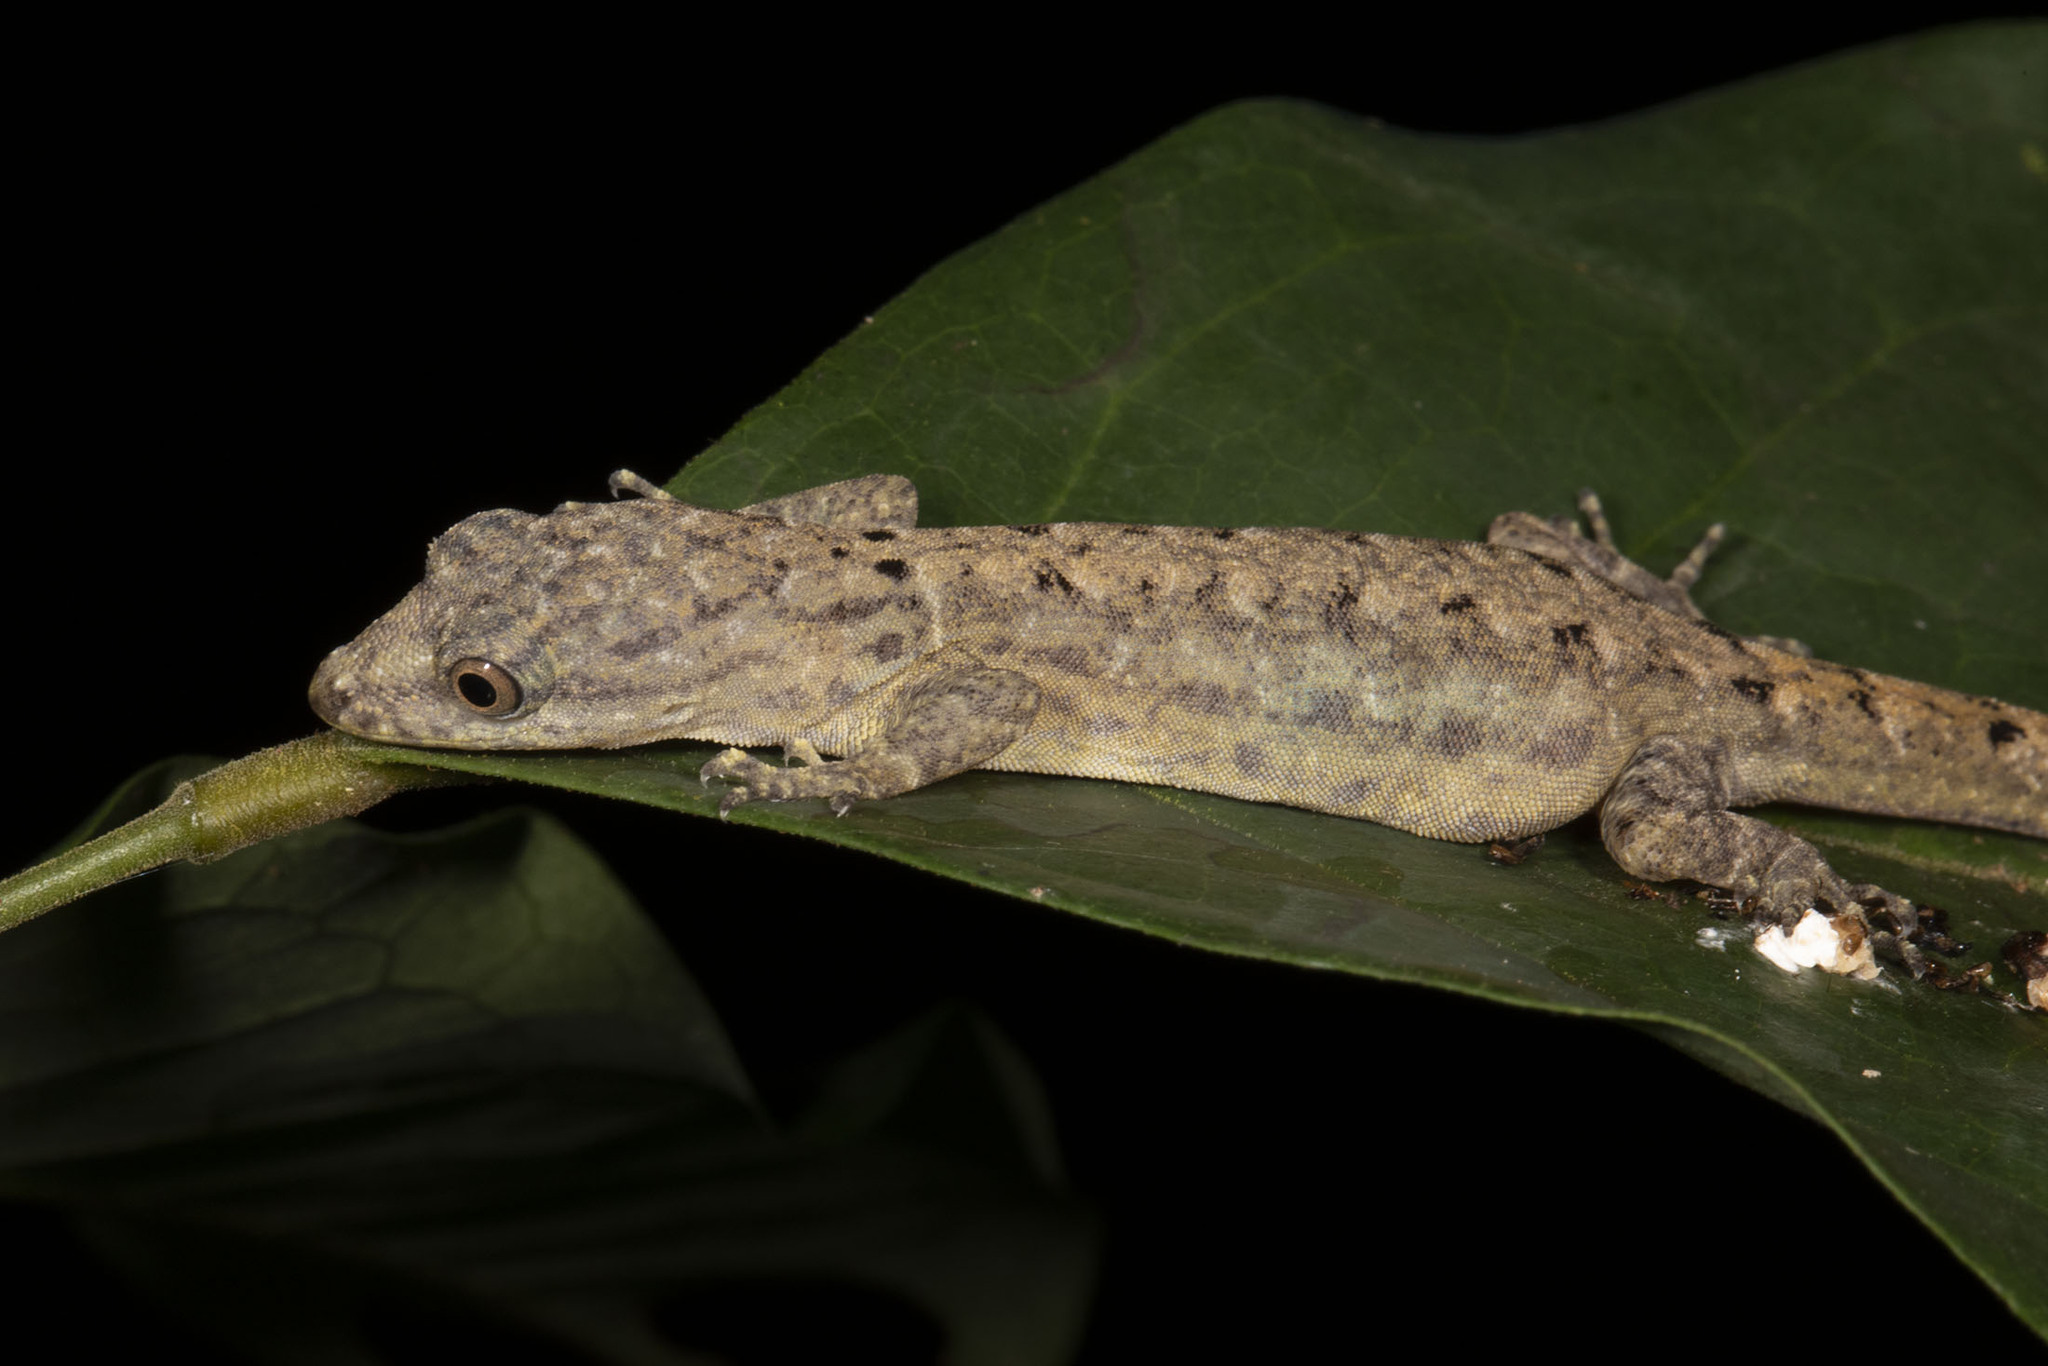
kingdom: Animalia
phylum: Chordata
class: Squamata
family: Sphaerodactylidae
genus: Gonatodes
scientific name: Gonatodes humeralis
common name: South american clawed gecko
